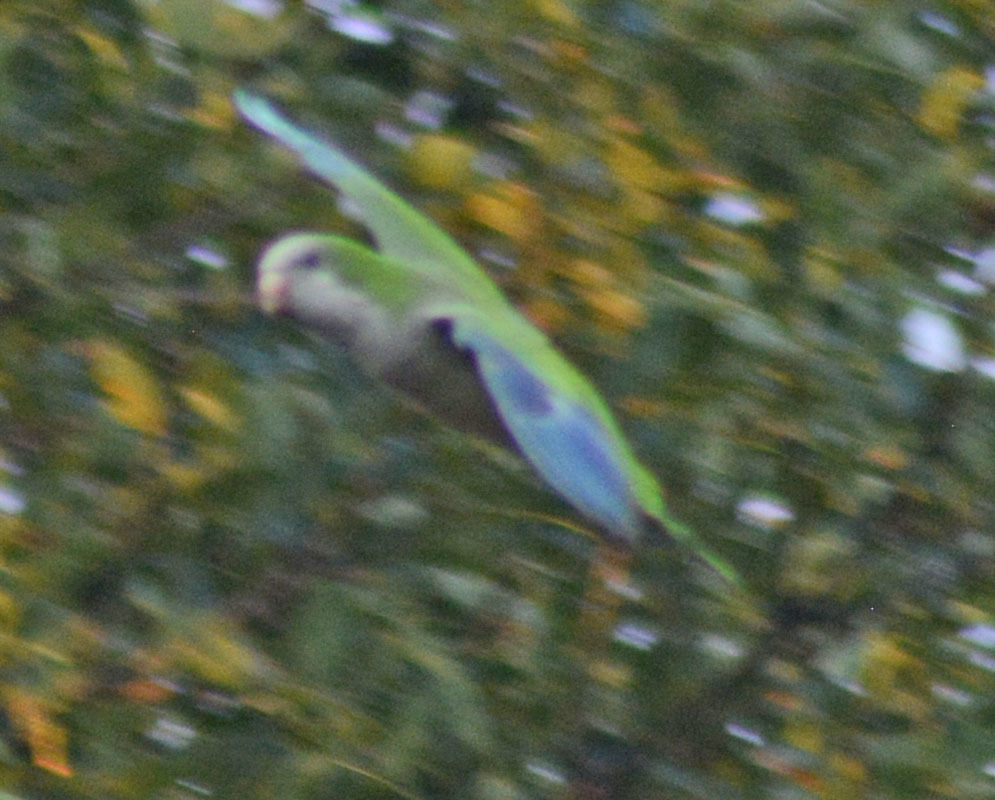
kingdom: Animalia
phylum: Chordata
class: Aves
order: Psittaciformes
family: Psittacidae
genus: Myiopsitta
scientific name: Myiopsitta monachus
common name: Monk parakeet
